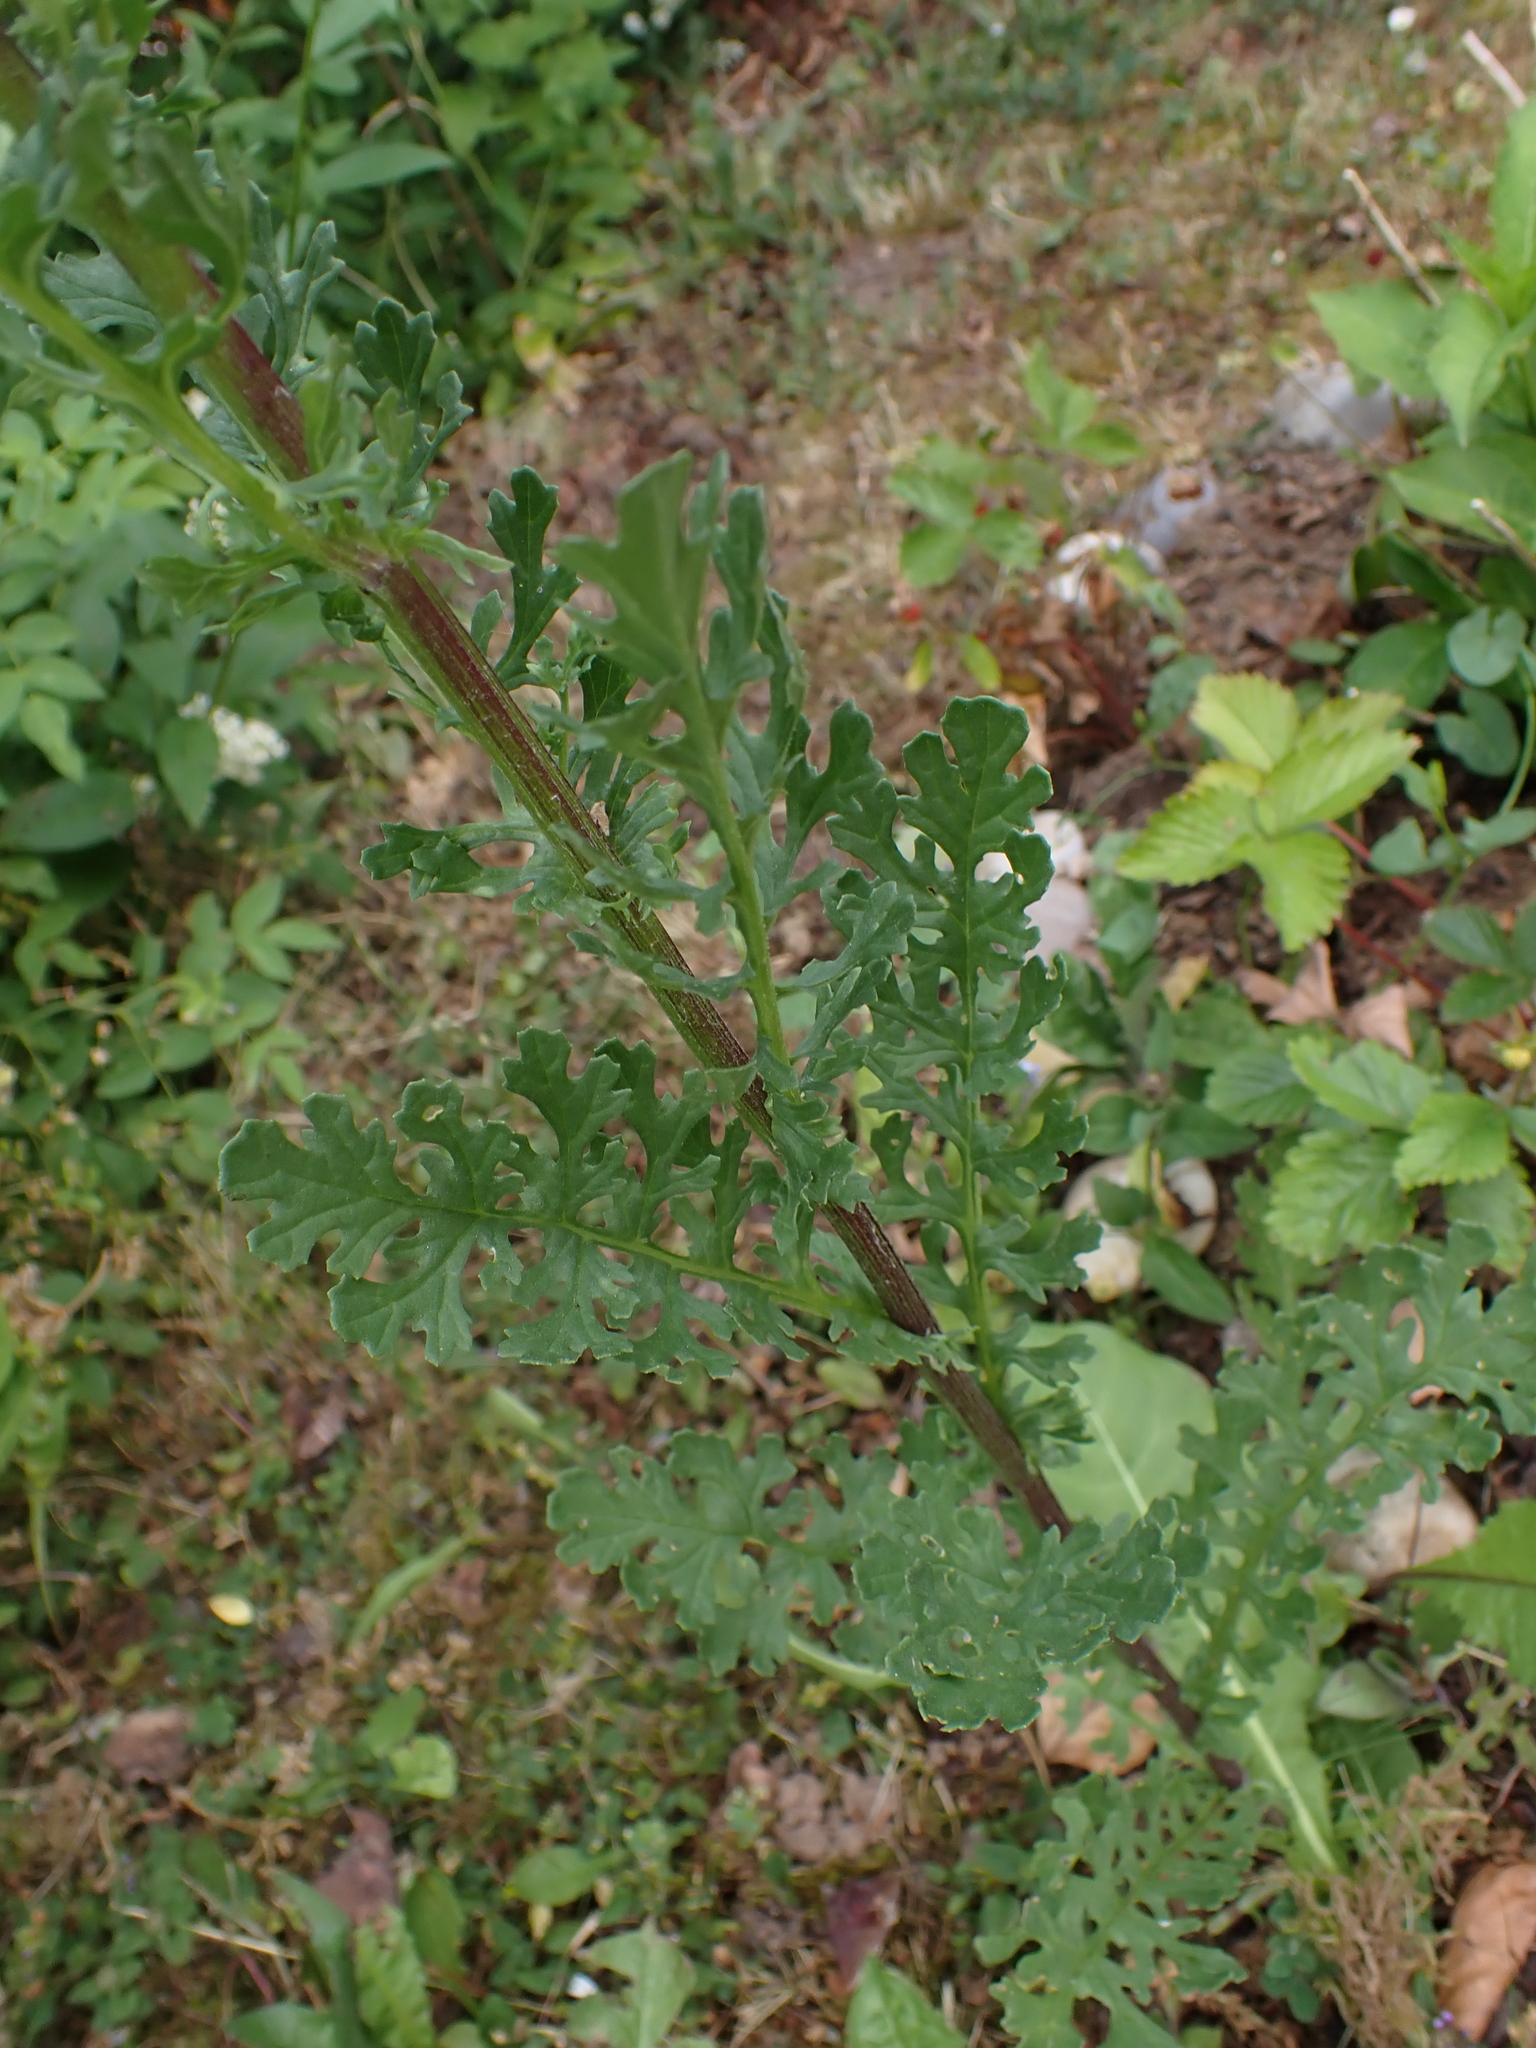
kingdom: Plantae
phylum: Tracheophyta
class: Magnoliopsida
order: Asterales
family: Asteraceae
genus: Jacobaea
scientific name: Jacobaea vulgaris
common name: Stinking willie
